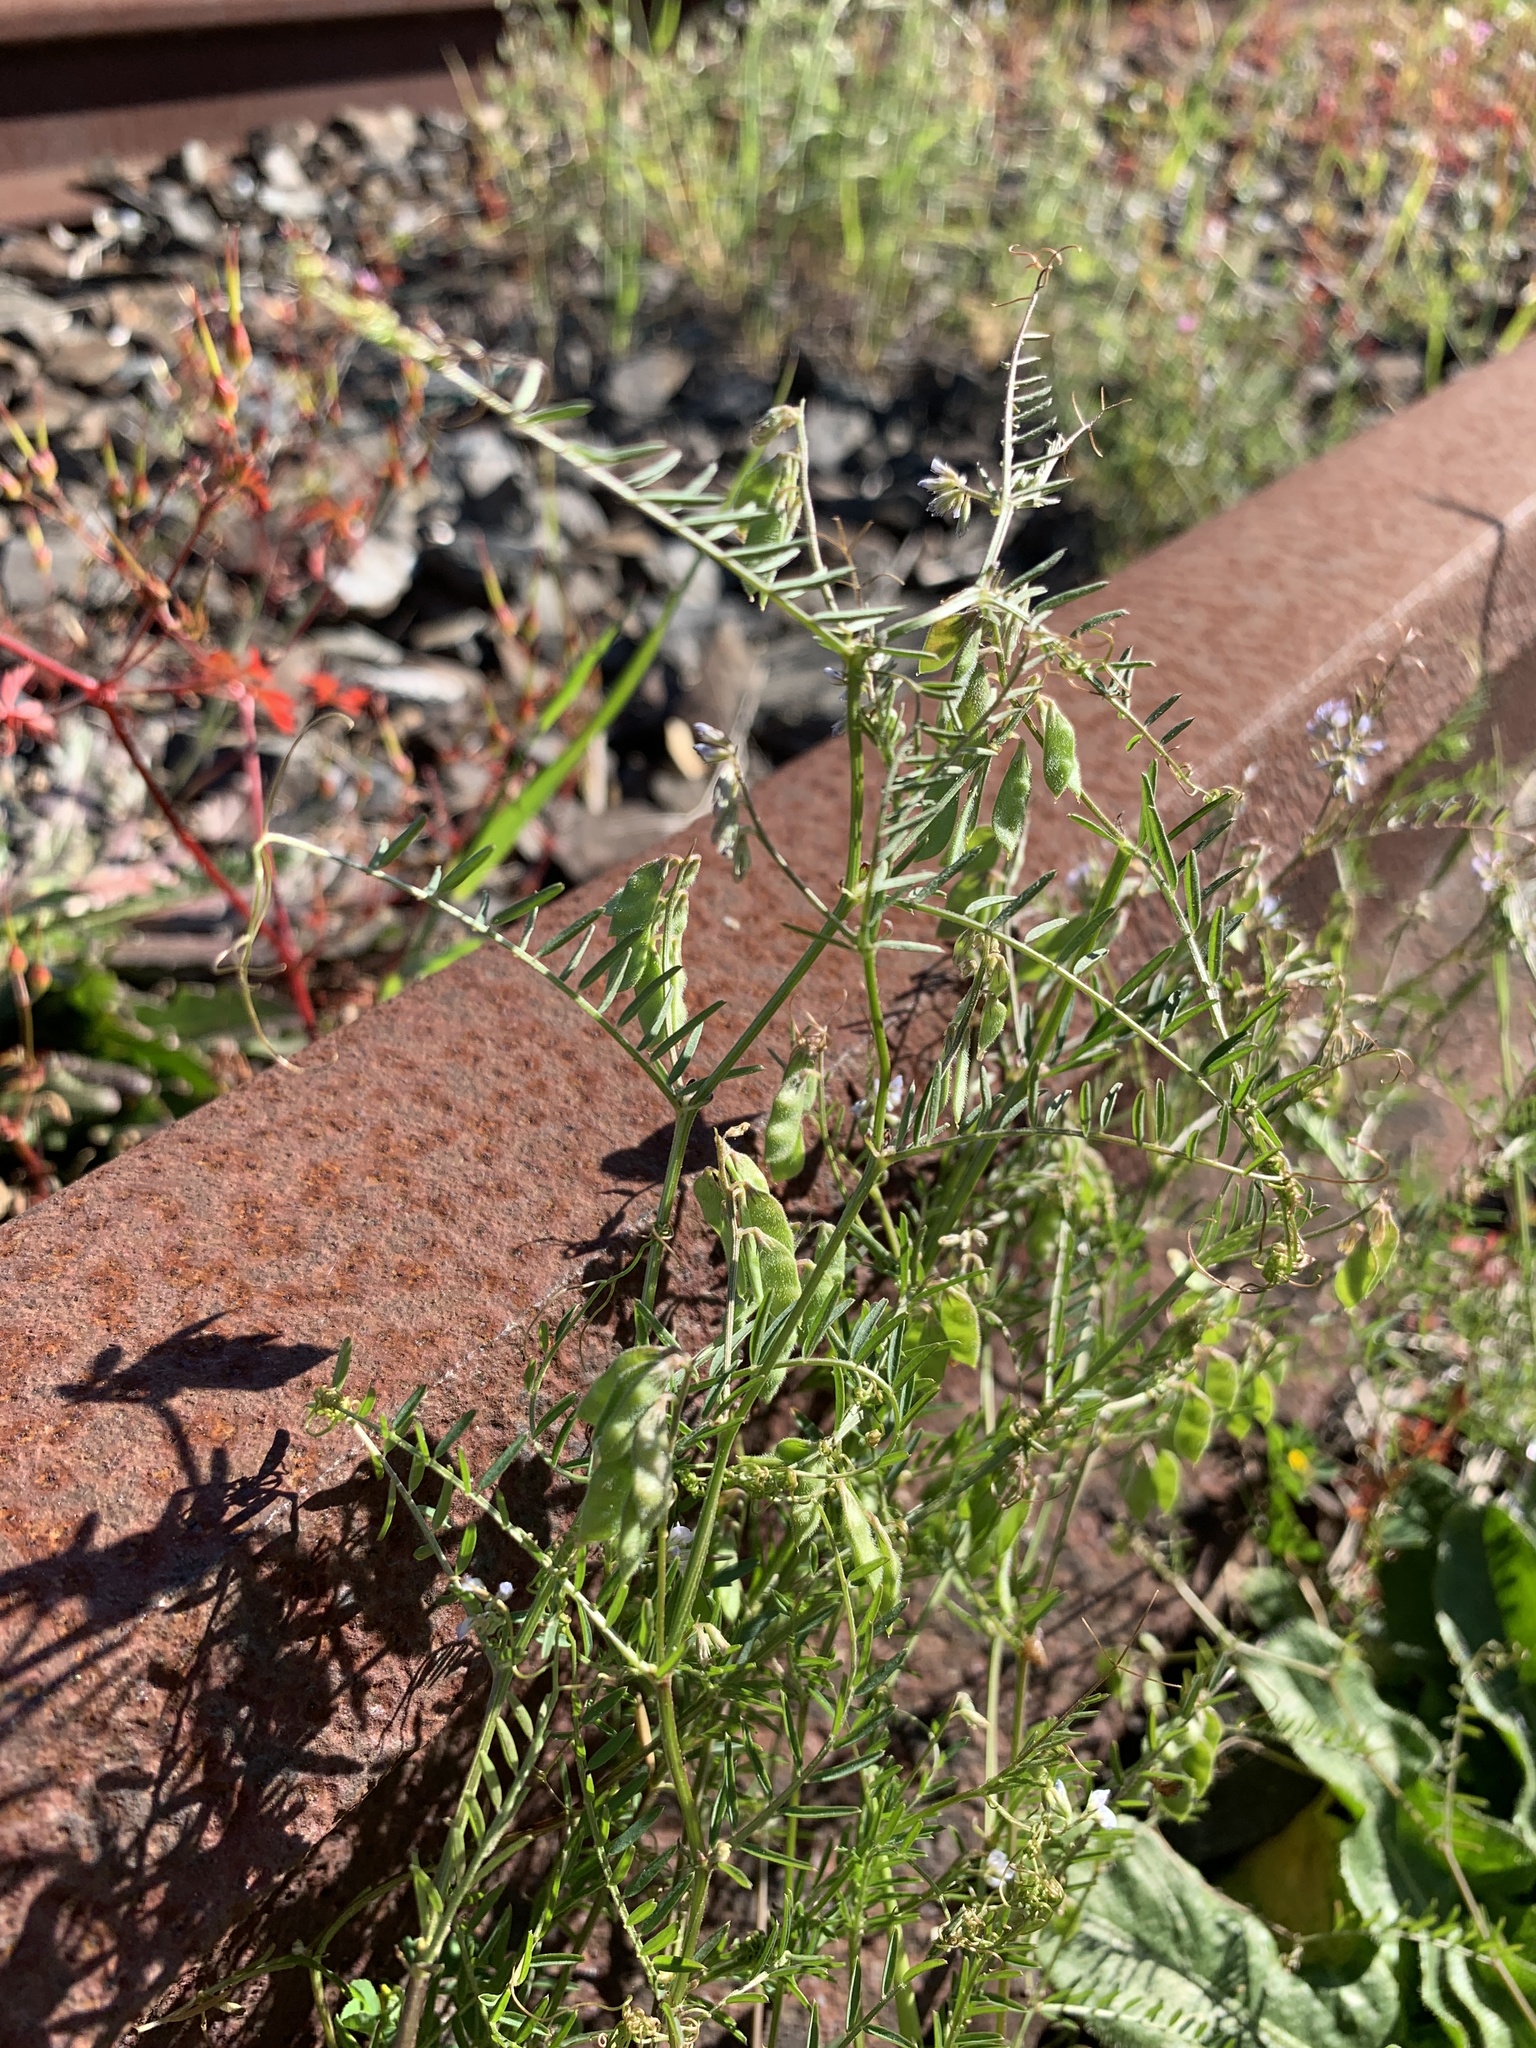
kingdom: Plantae
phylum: Tracheophyta
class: Magnoliopsida
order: Fabales
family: Fabaceae
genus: Vicia
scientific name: Vicia hirsuta
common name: Tiny vetch
